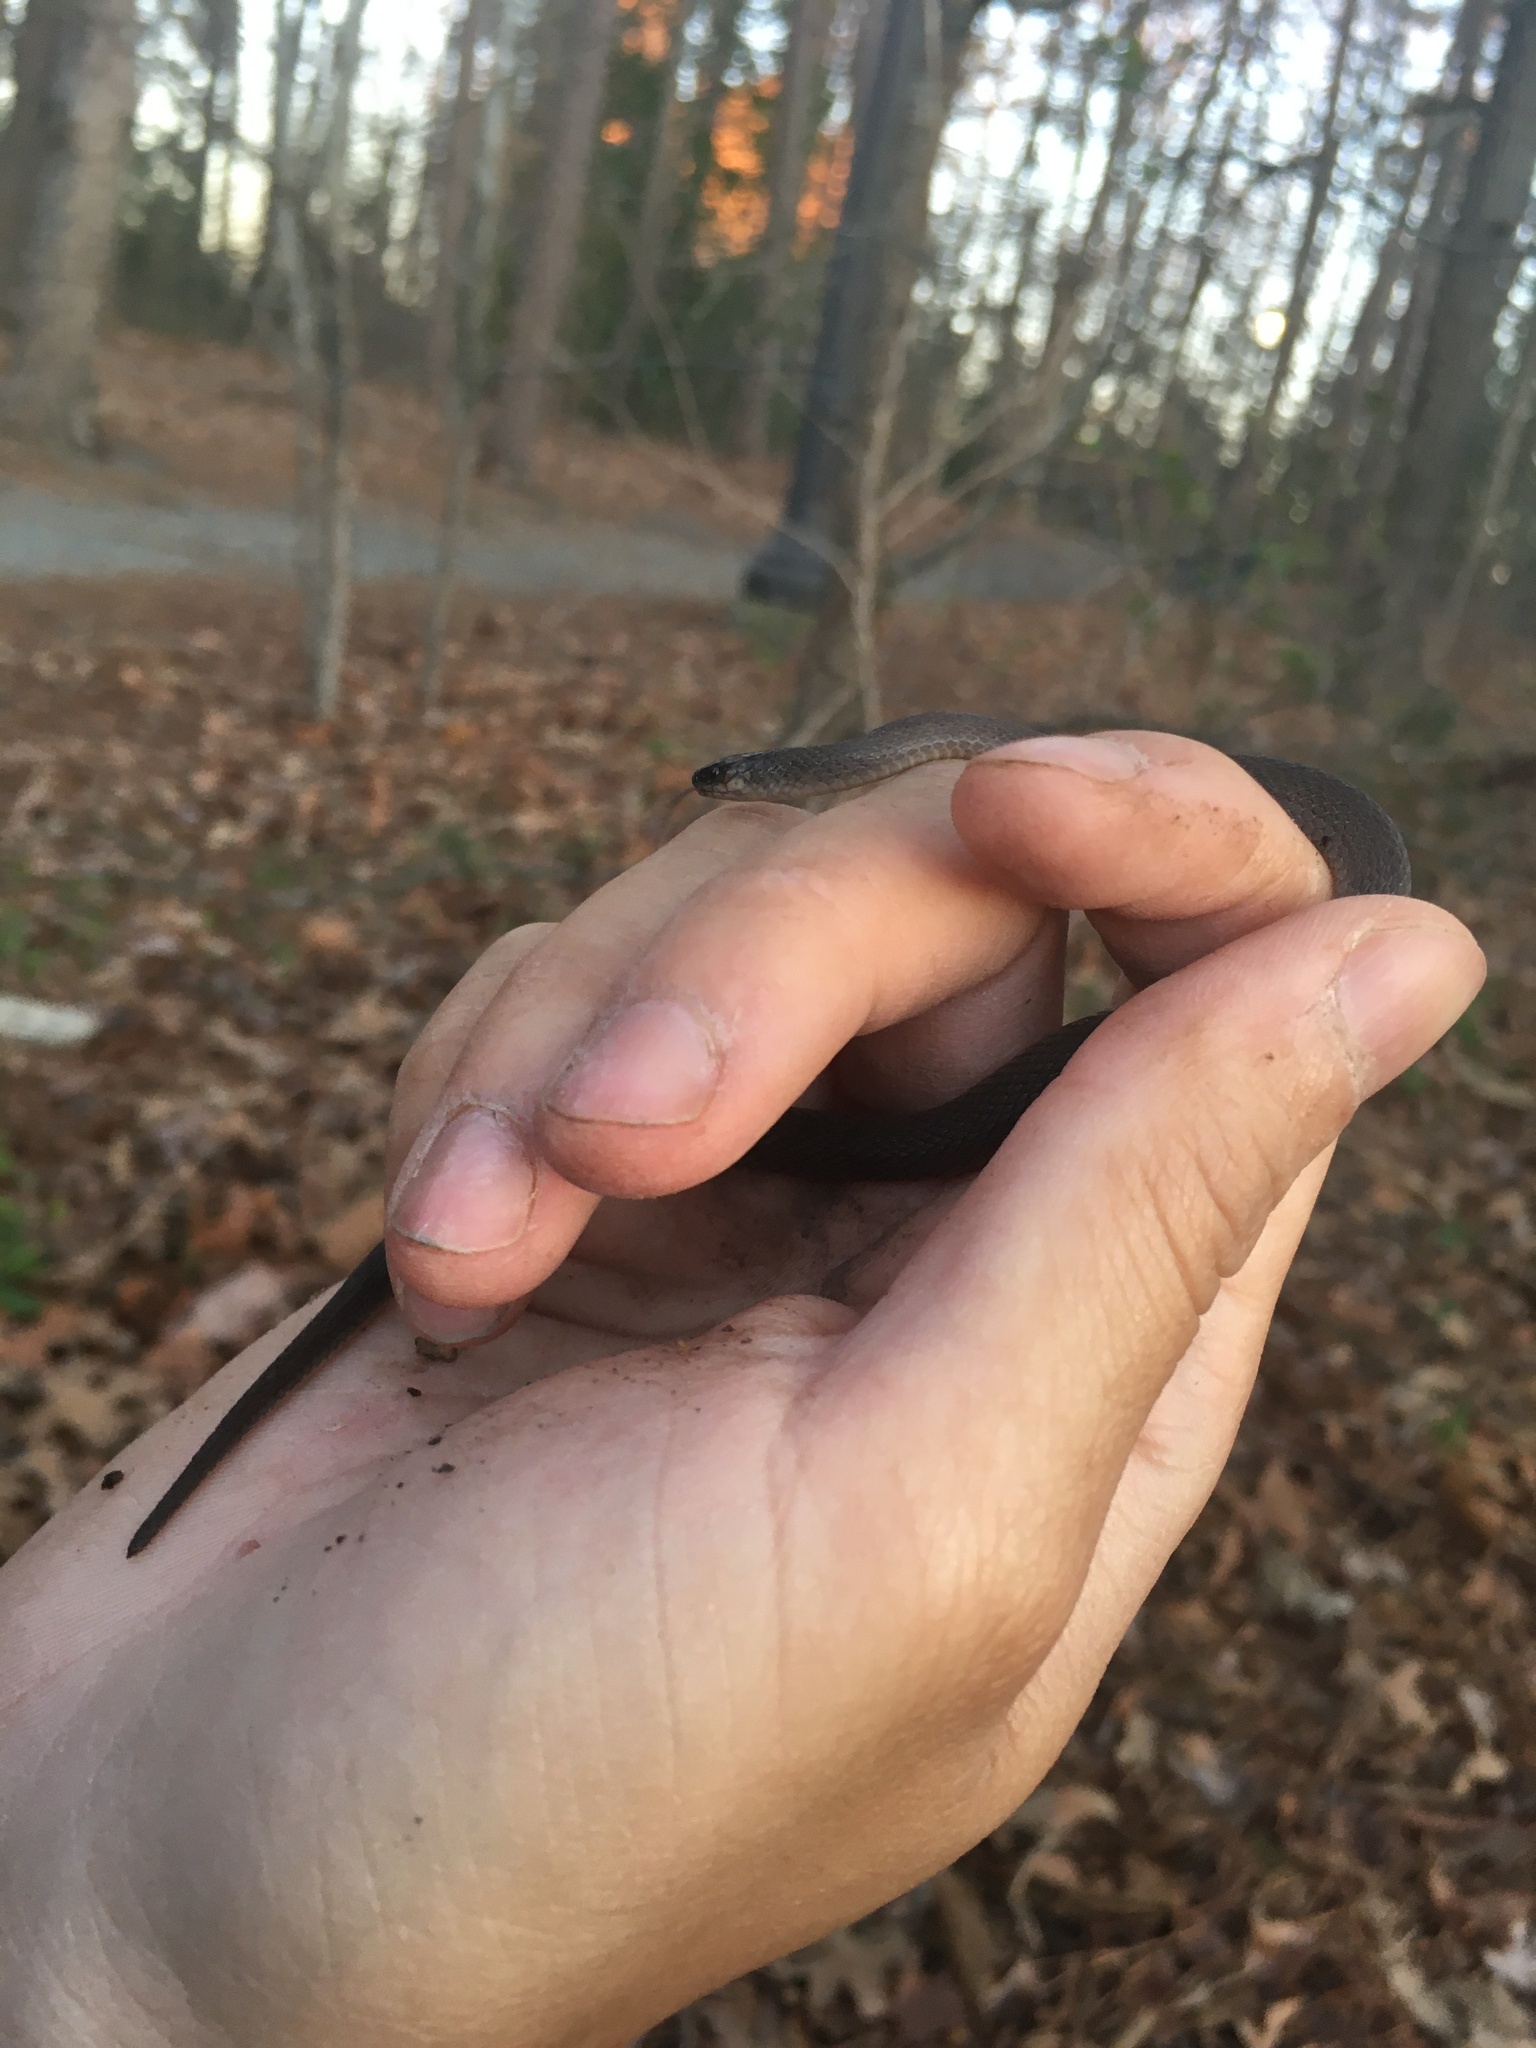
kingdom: Animalia
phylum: Chordata
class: Squamata
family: Colubridae
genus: Haldea
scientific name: Haldea striatula
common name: Rough earth snake
